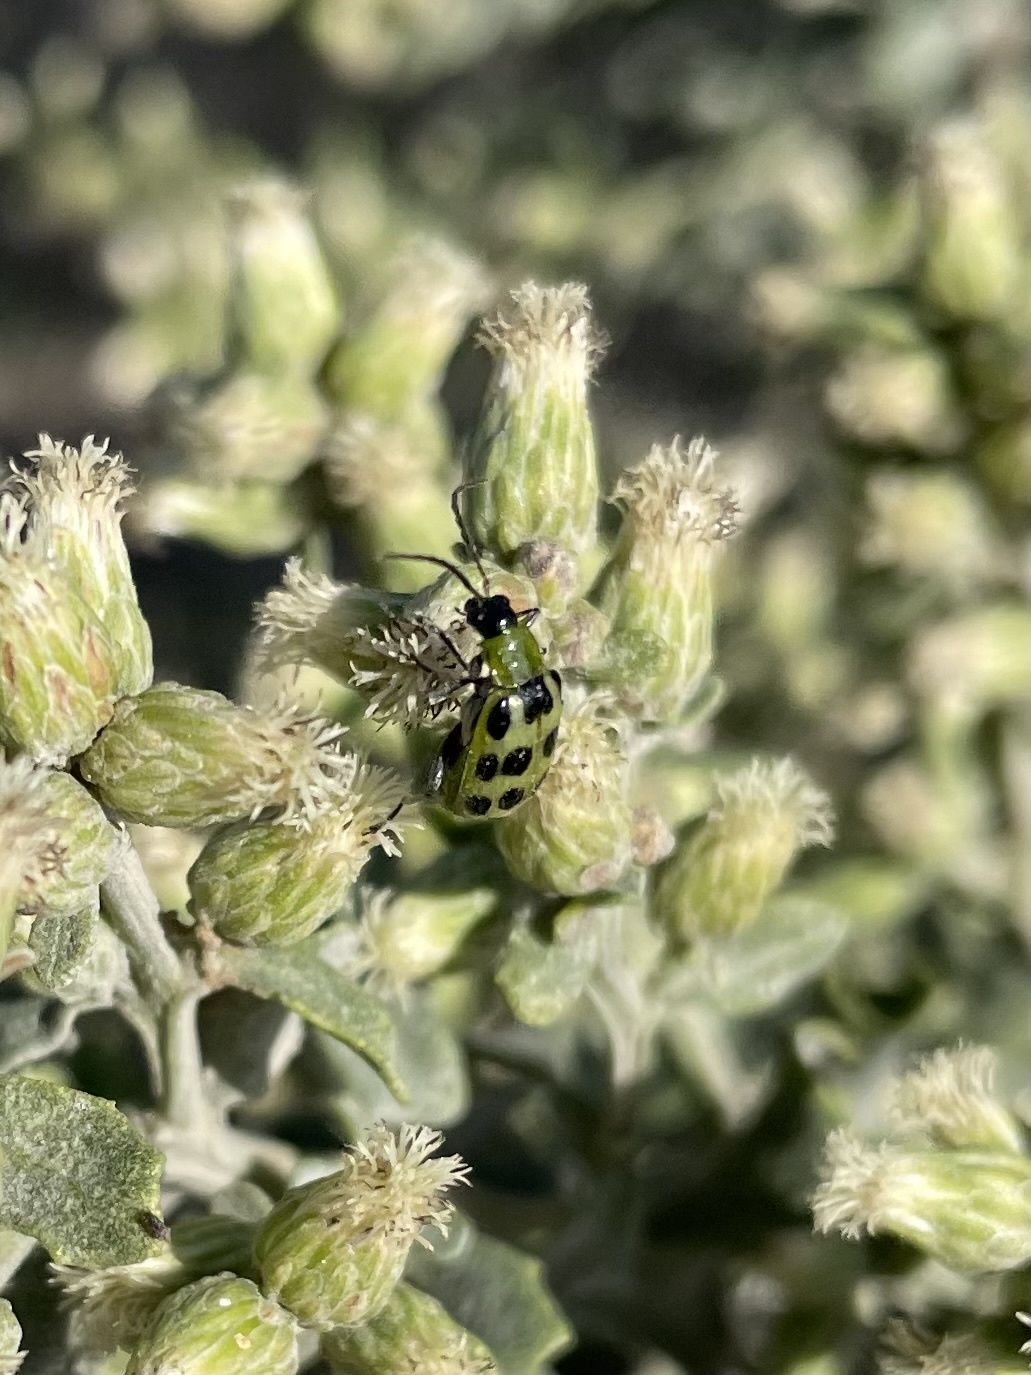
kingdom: Animalia
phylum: Arthropoda
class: Insecta
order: Coleoptera
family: Chrysomelidae
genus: Diabrotica
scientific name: Diabrotica undecimpunctata
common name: Spotted cucumber beetle
